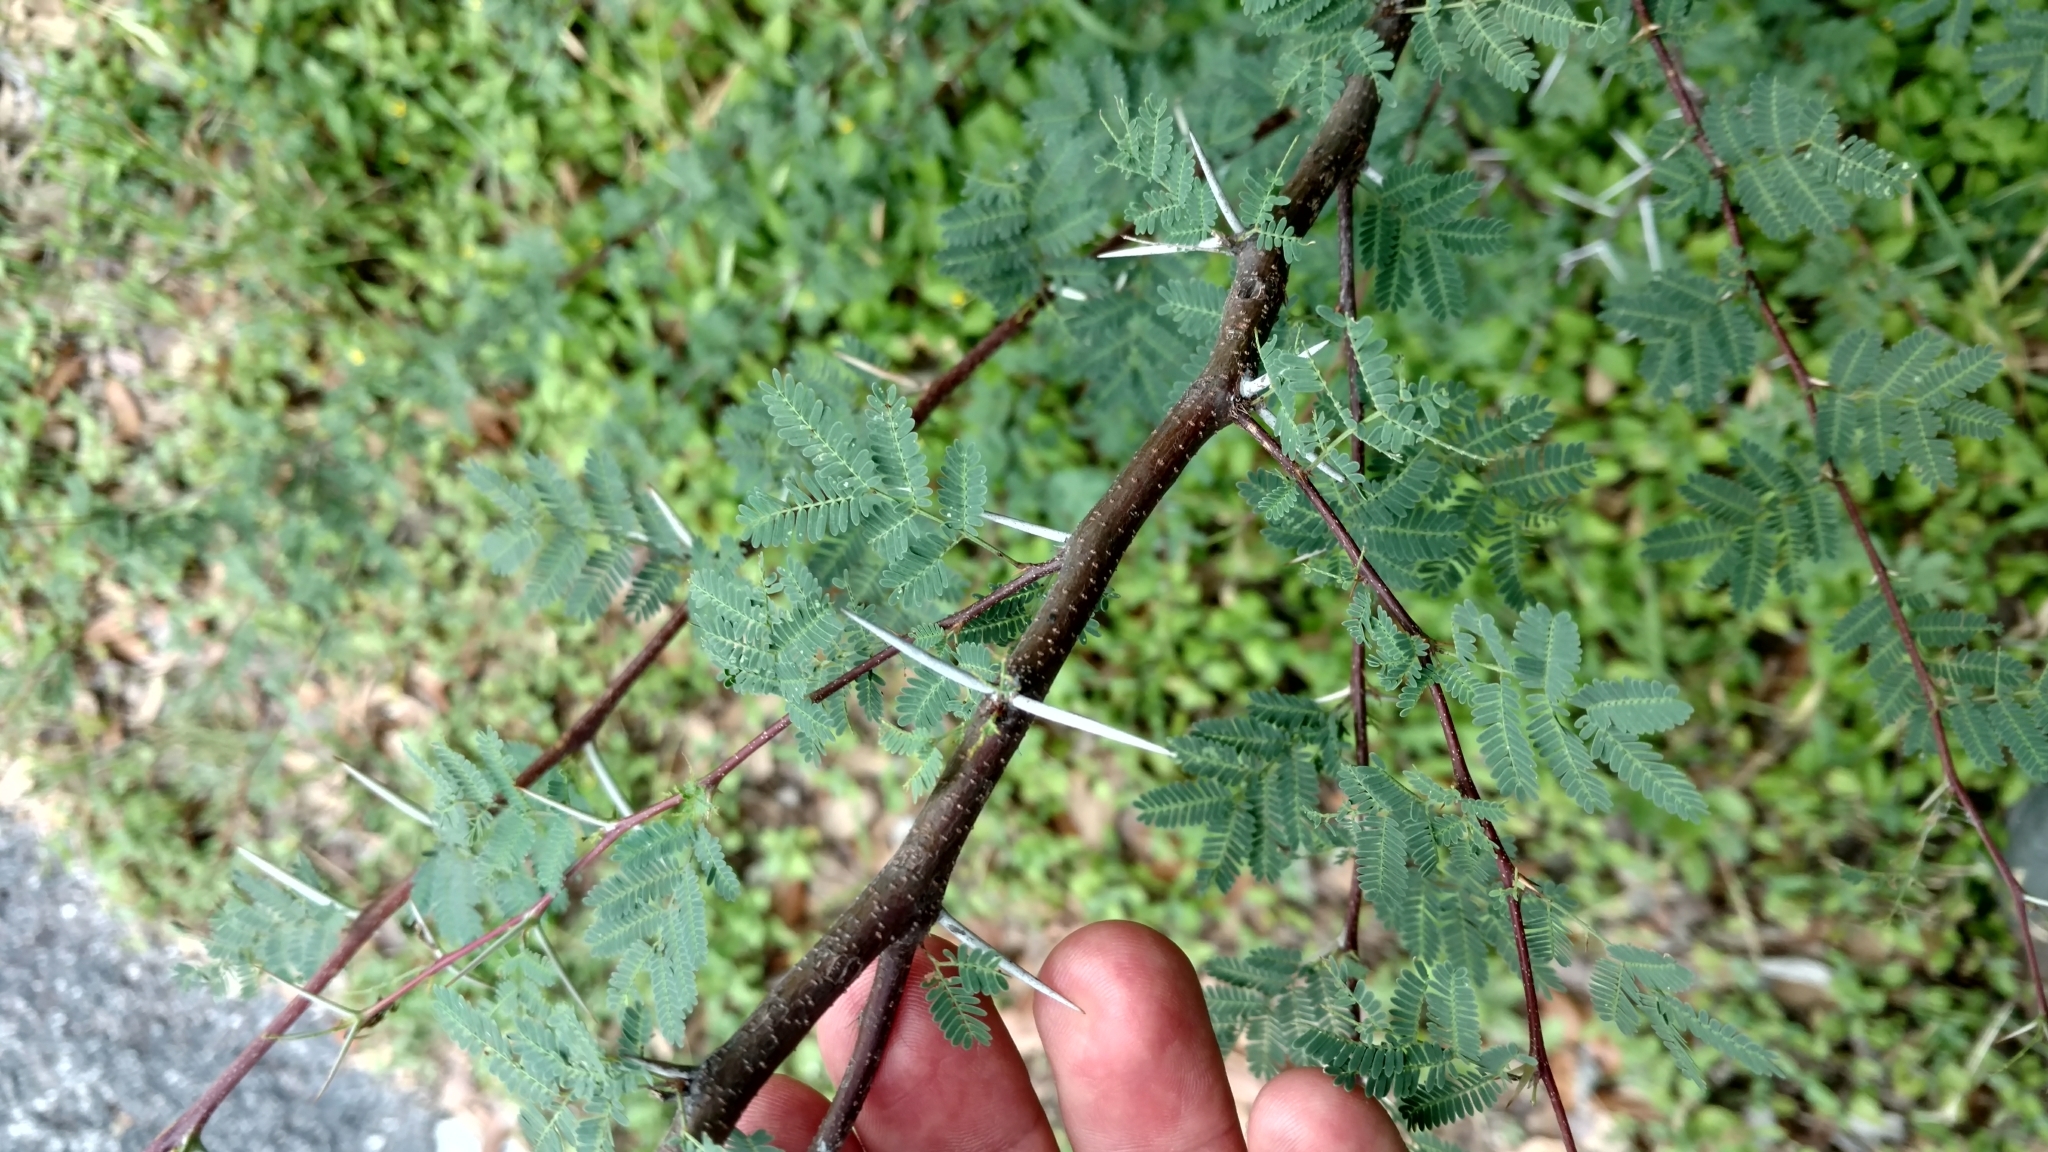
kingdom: Plantae
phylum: Tracheophyta
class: Magnoliopsida
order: Fabales
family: Fabaceae
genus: Vachellia
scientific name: Vachellia farnesiana
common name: Sweet acacia
